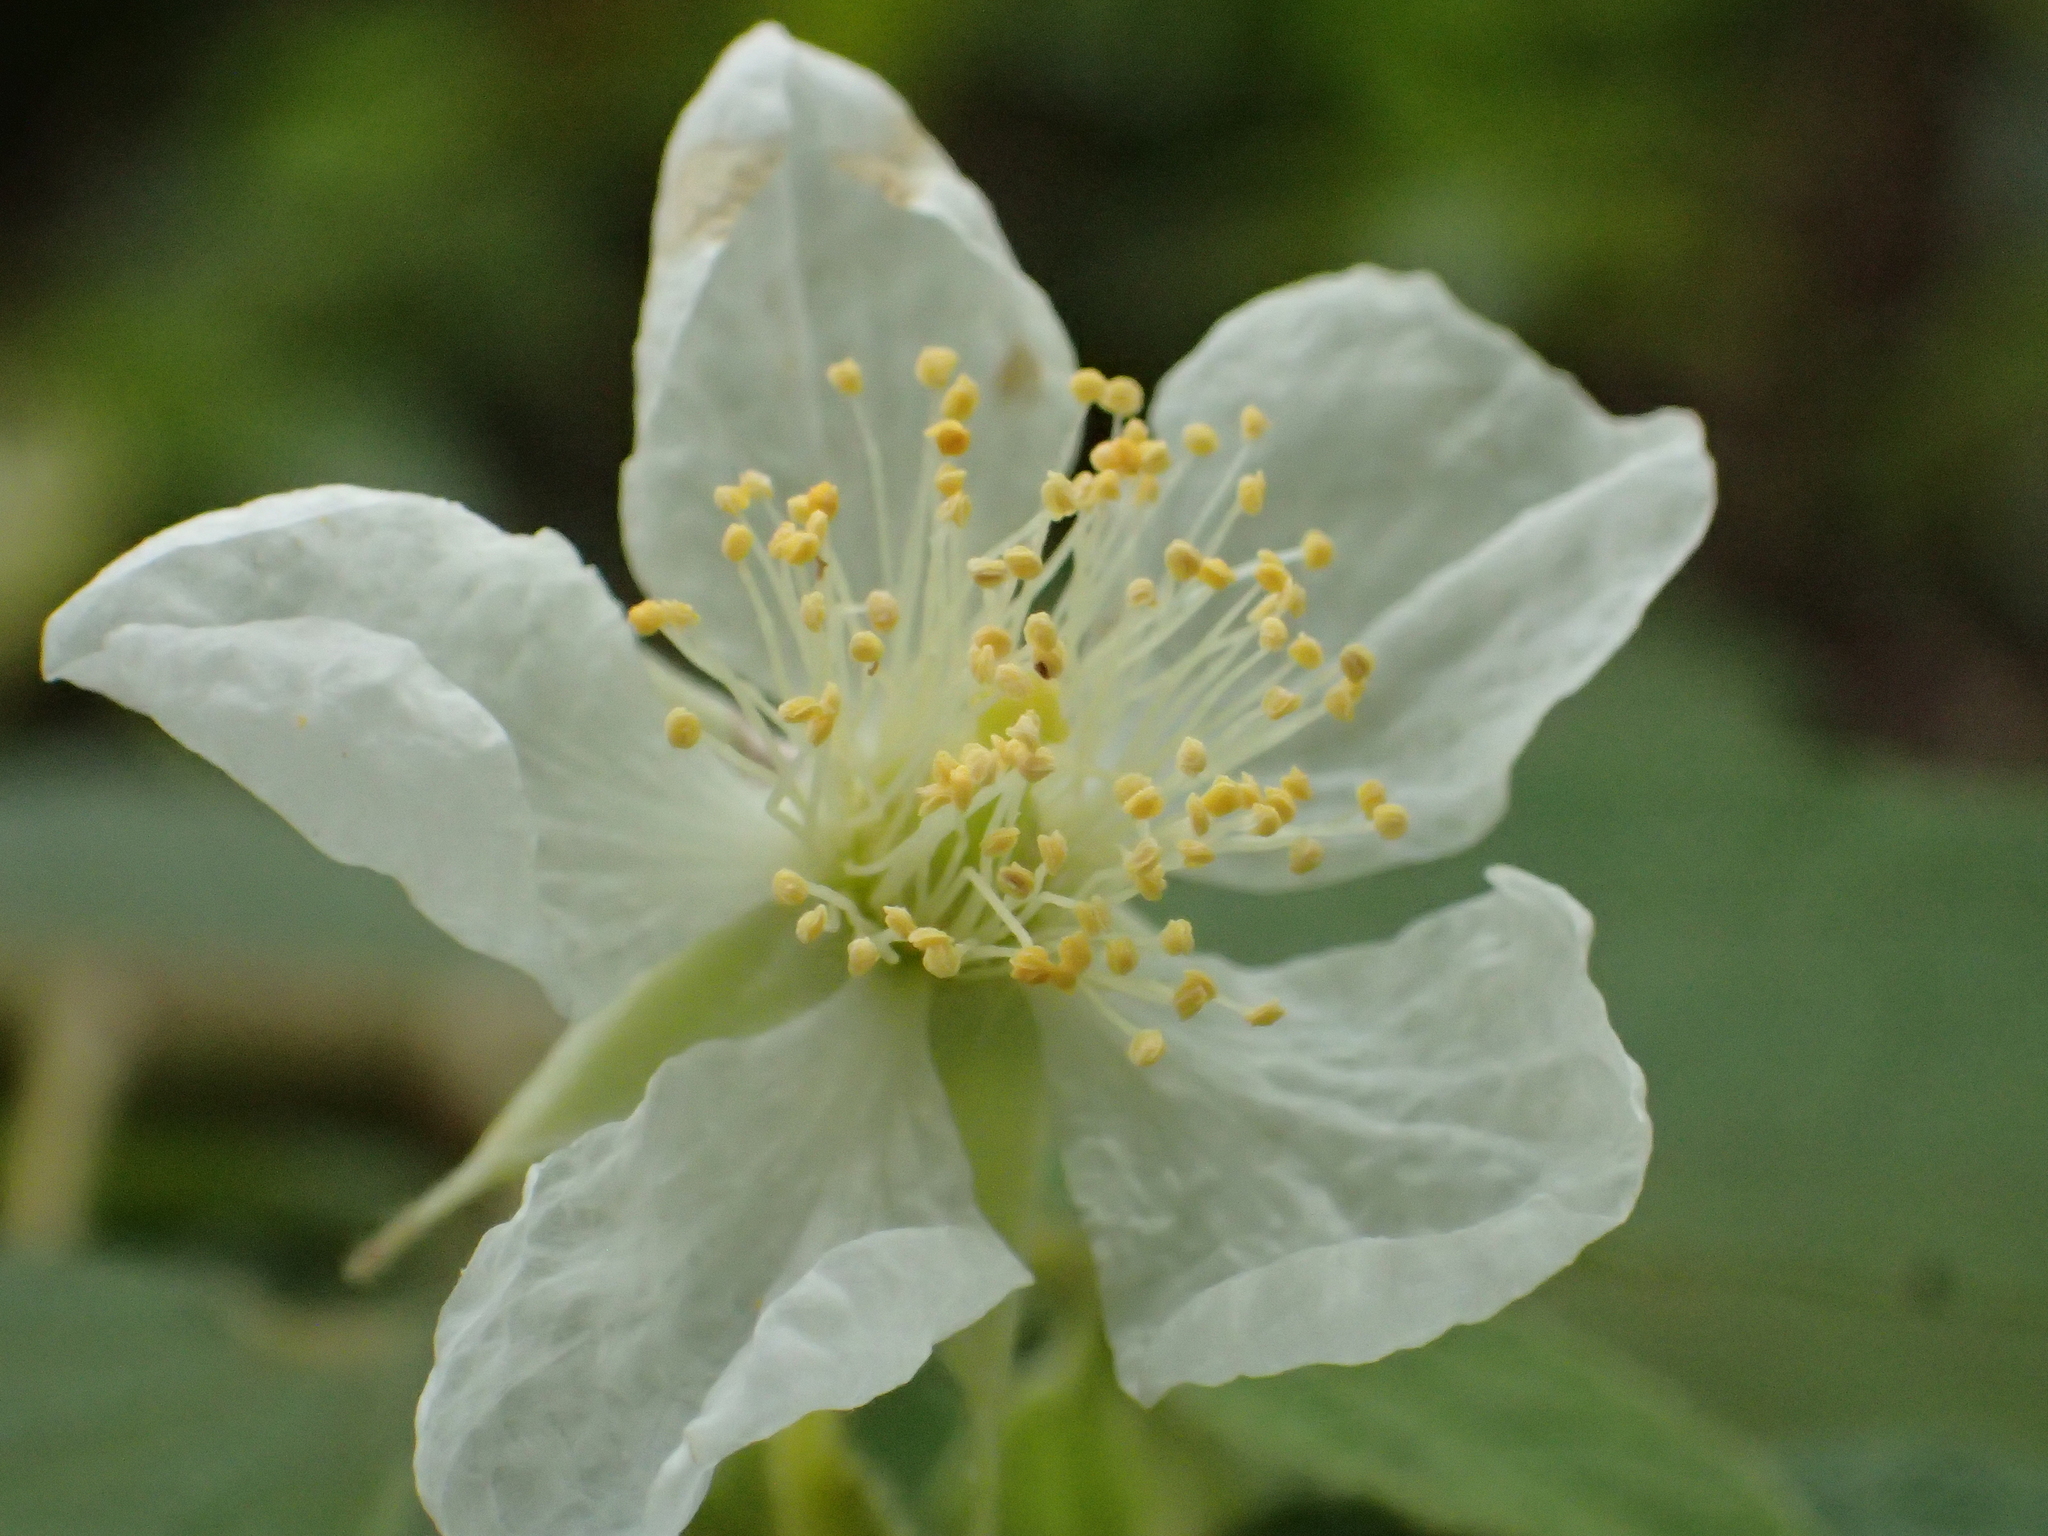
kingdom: Plantae
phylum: Tracheophyta
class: Magnoliopsida
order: Malvales
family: Muntingiaceae
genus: Muntingia
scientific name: Muntingia calabura
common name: Strawberrytree
